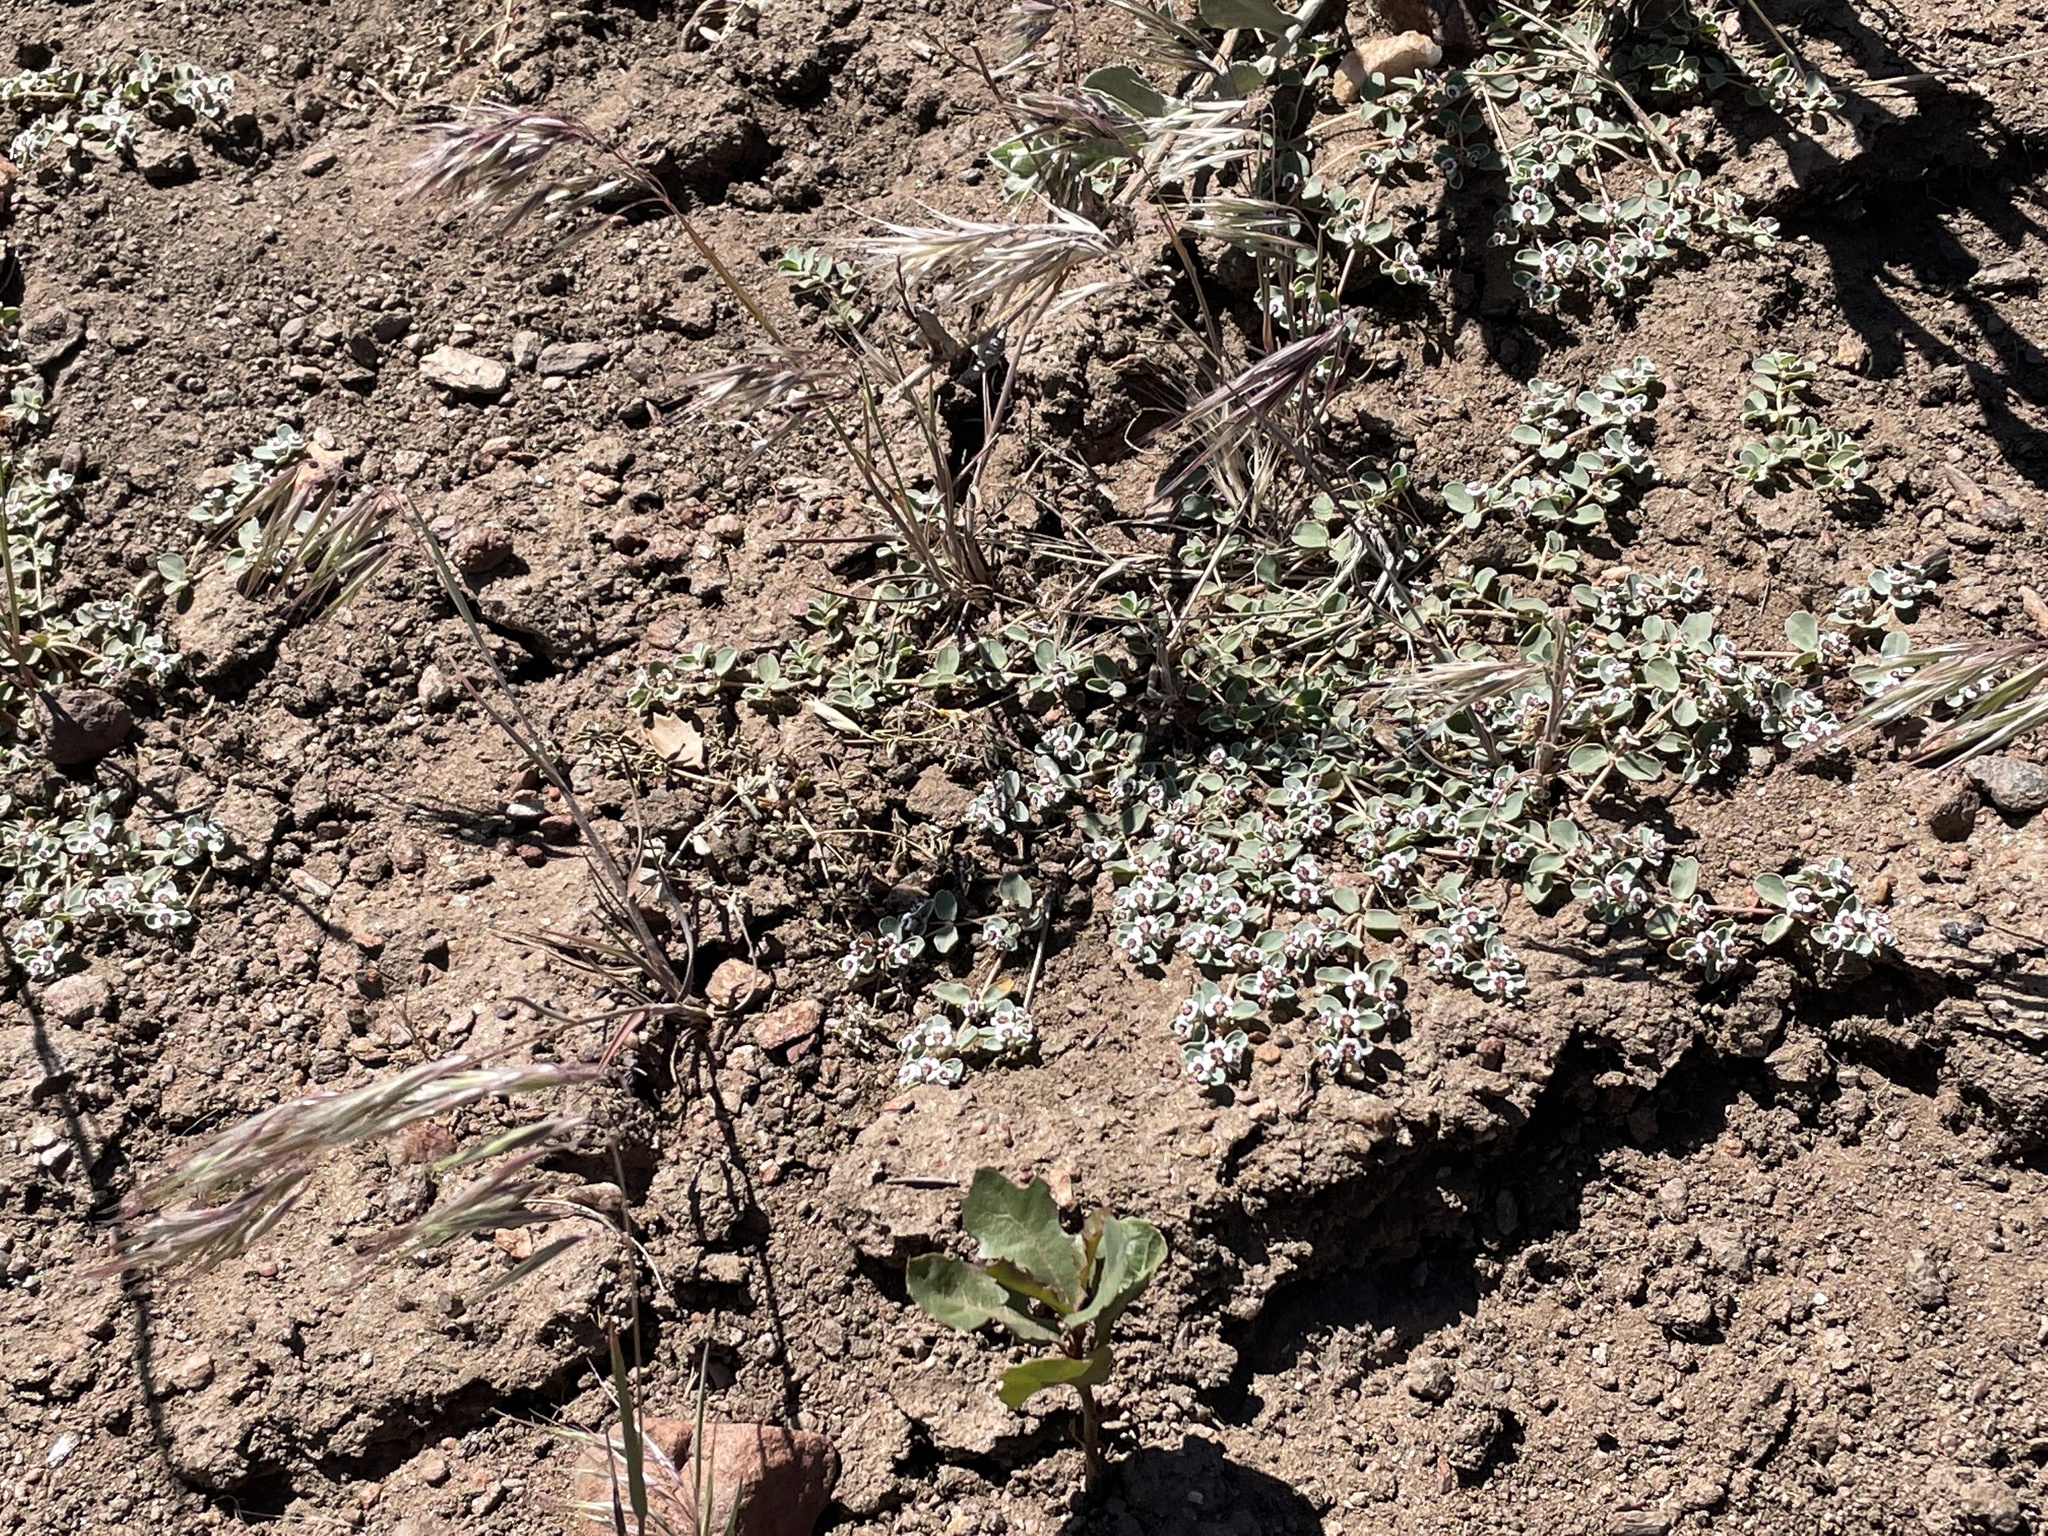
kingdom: Plantae
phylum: Tracheophyta
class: Magnoliopsida
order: Malpighiales
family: Euphorbiaceae
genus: Euphorbia
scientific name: Euphorbia albomarginata
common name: Whitemargin sandmat
